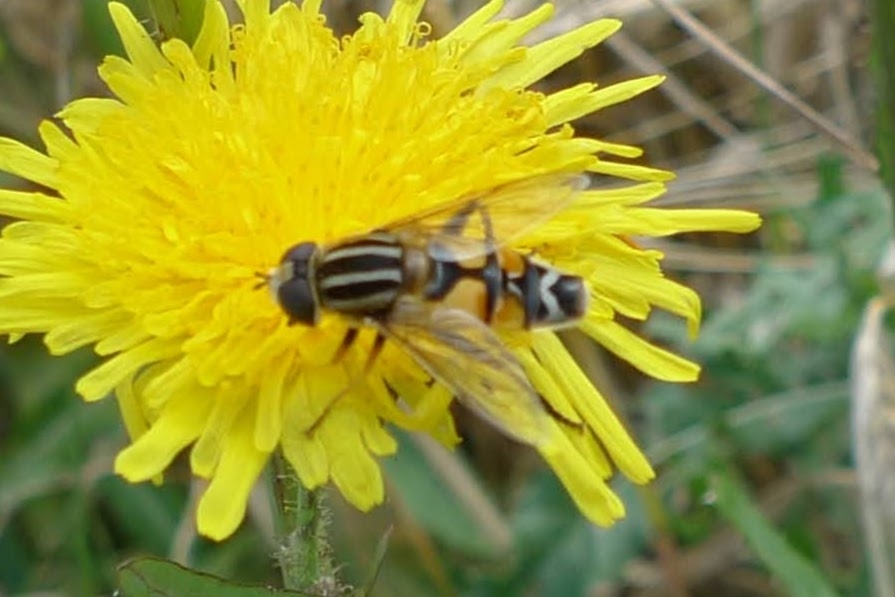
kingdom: Animalia
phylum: Arthropoda
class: Insecta
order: Diptera
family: Syrphidae
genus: Helophilus
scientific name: Helophilus trivittatus
